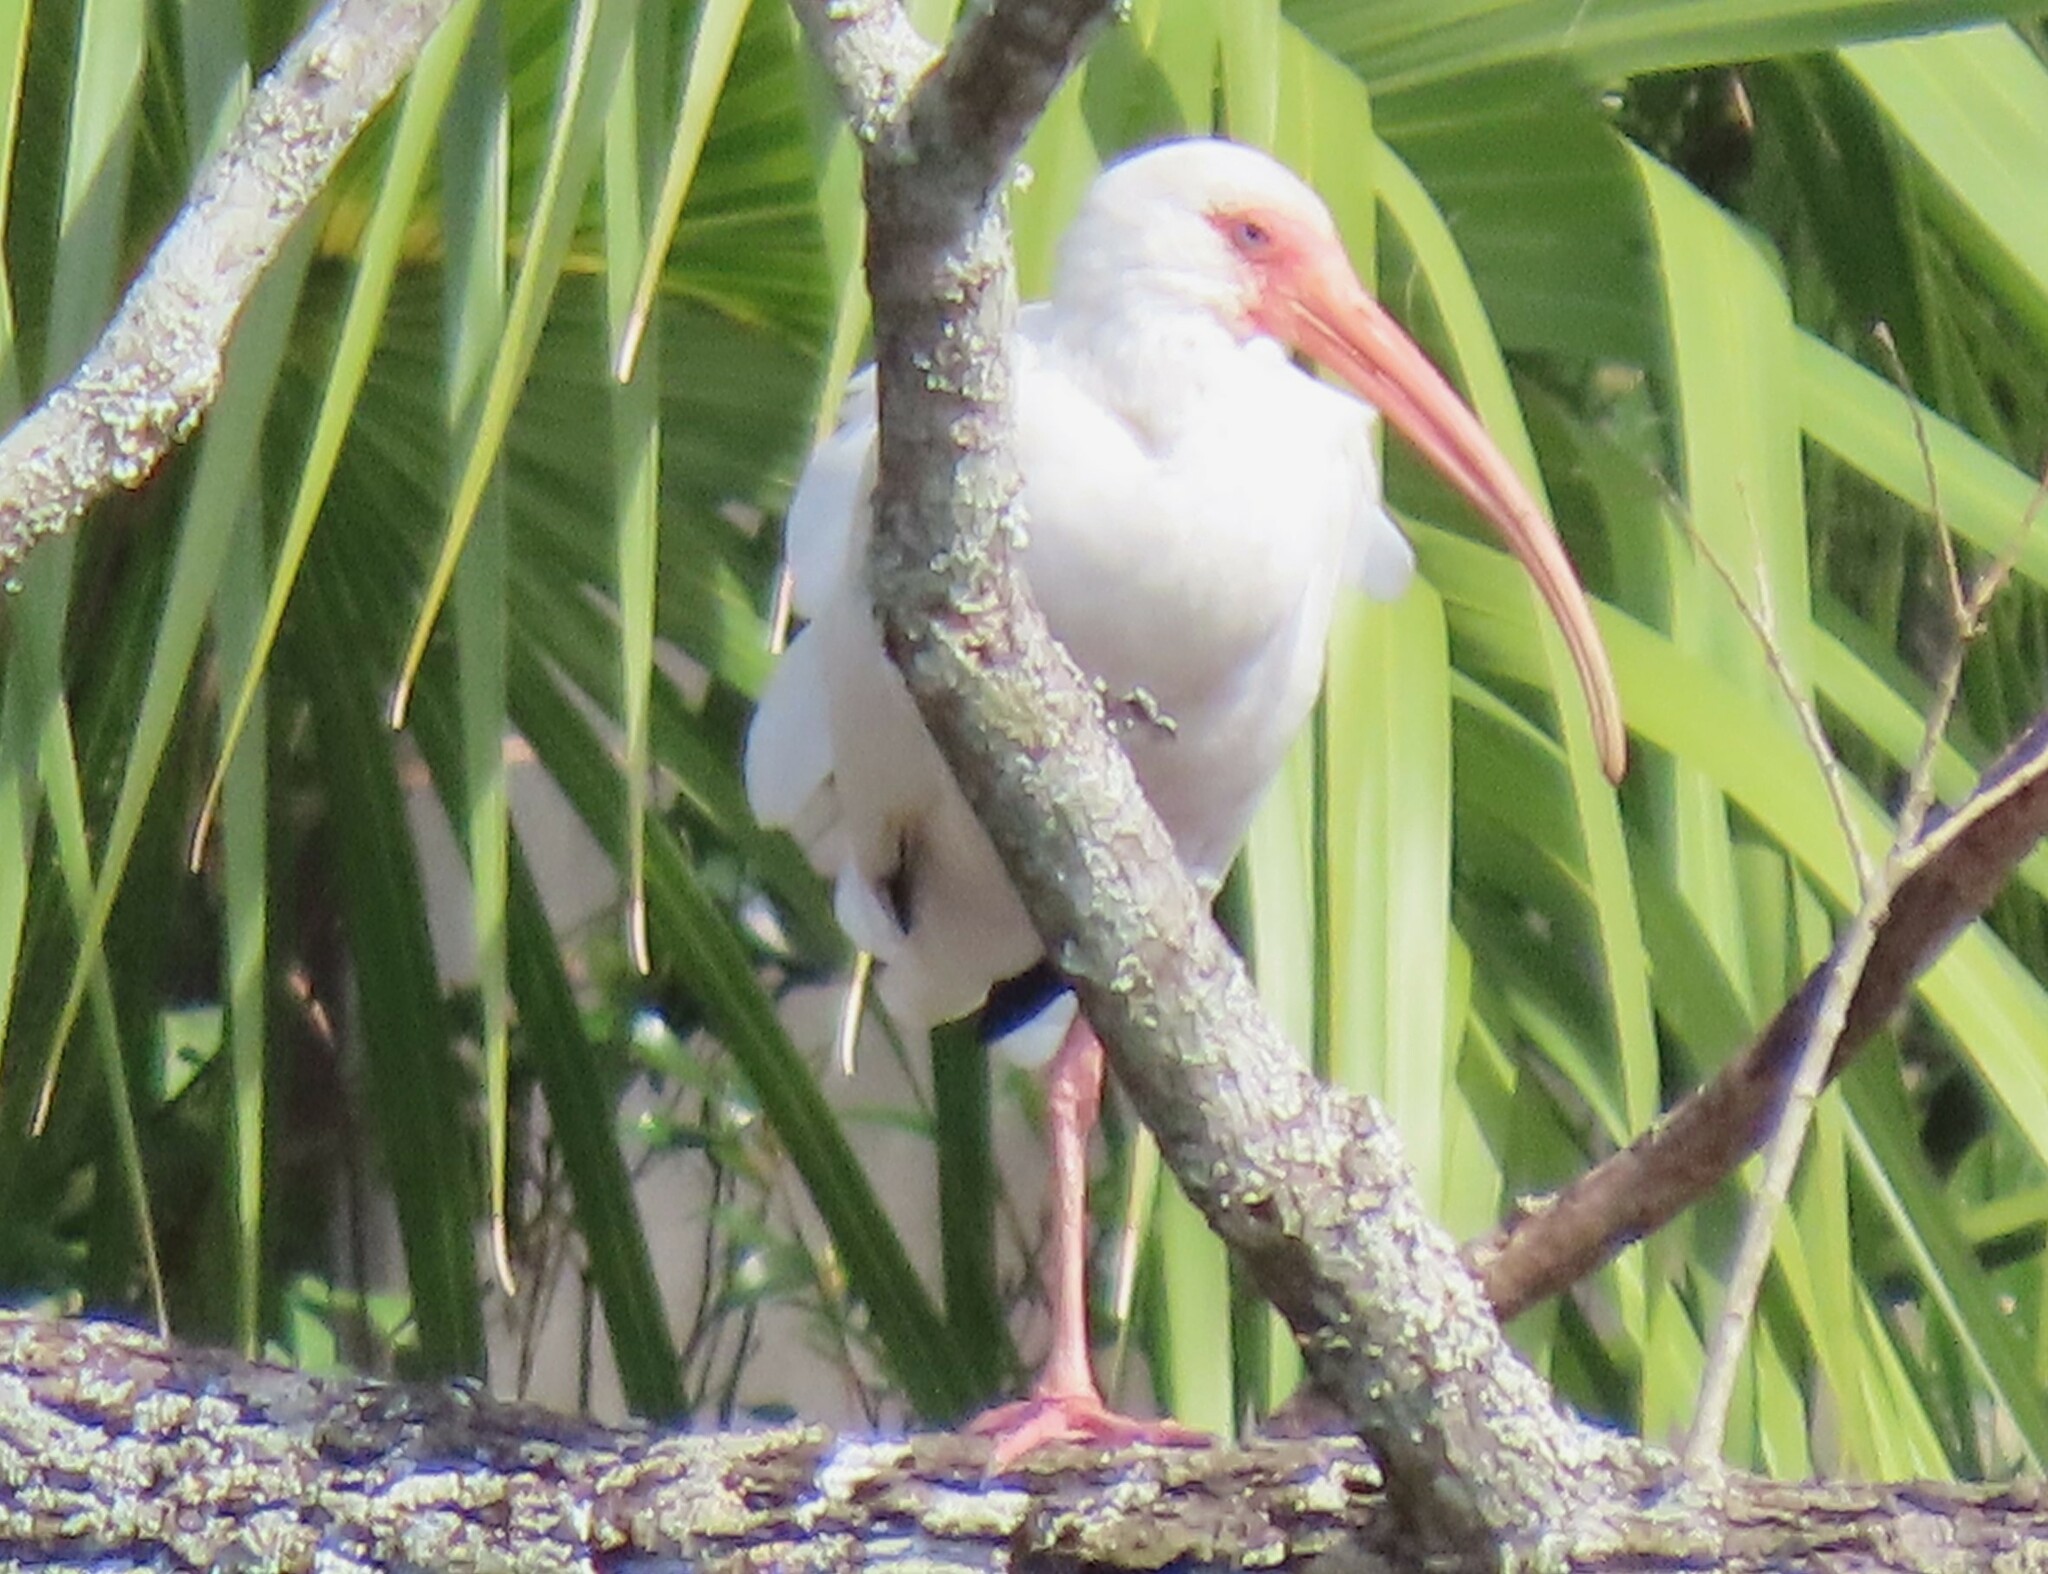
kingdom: Animalia
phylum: Chordata
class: Aves
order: Pelecaniformes
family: Threskiornithidae
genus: Eudocimus
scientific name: Eudocimus albus
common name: White ibis
